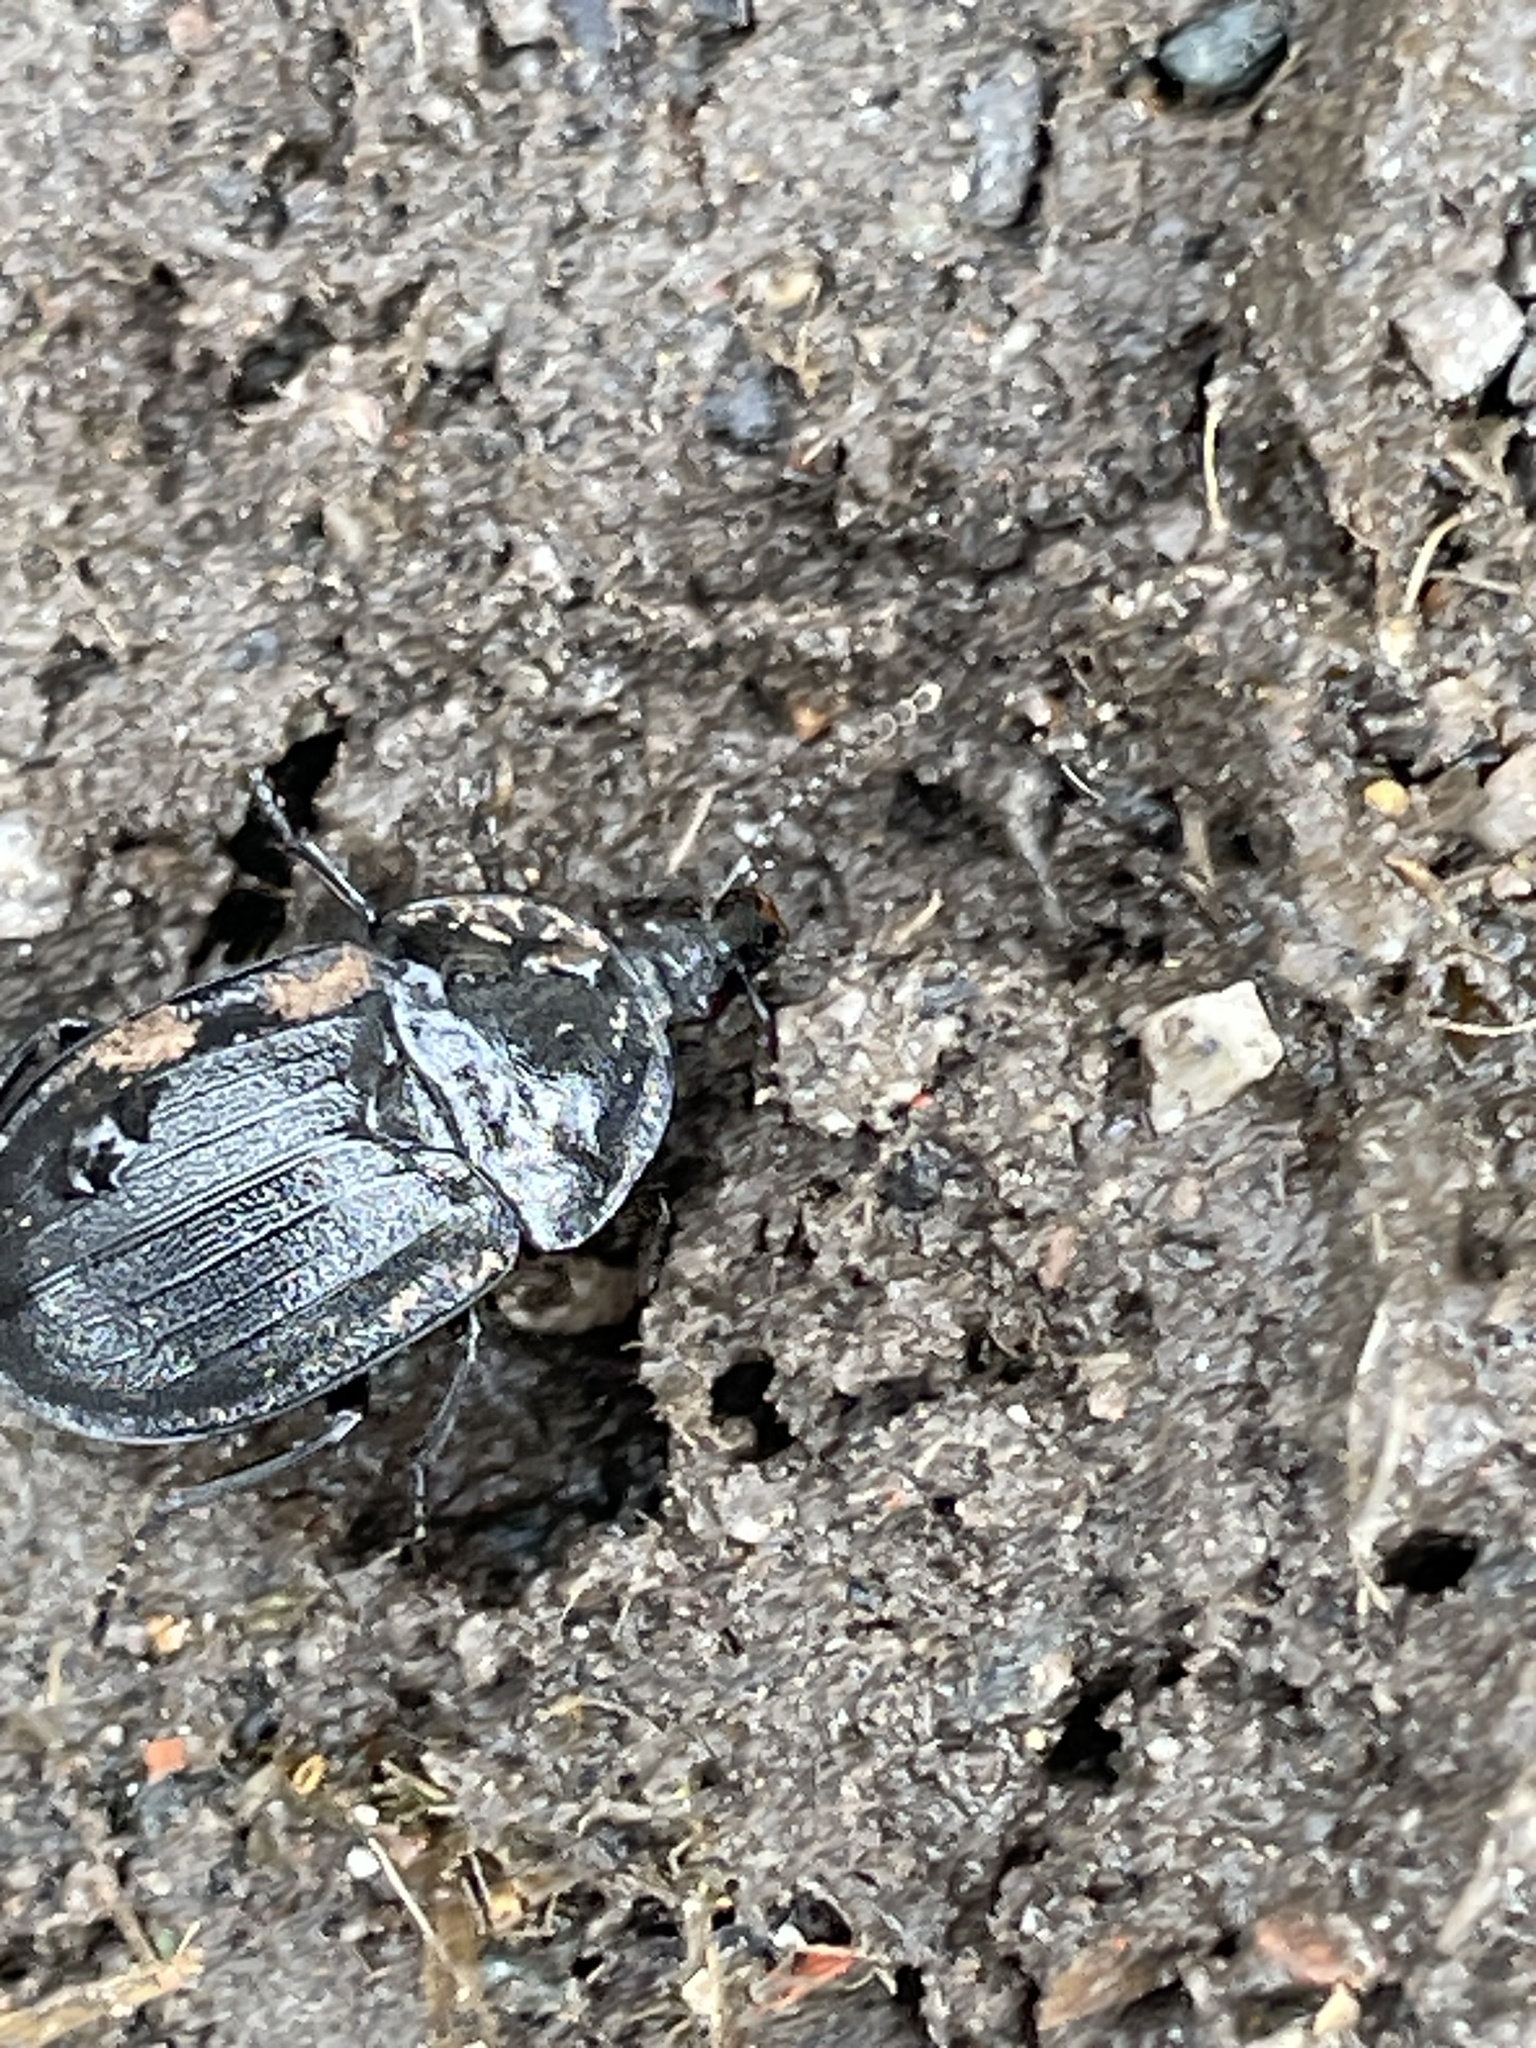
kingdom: Animalia
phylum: Arthropoda
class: Insecta
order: Coleoptera
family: Staphylinidae
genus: Silpha
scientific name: Silpha atrata
